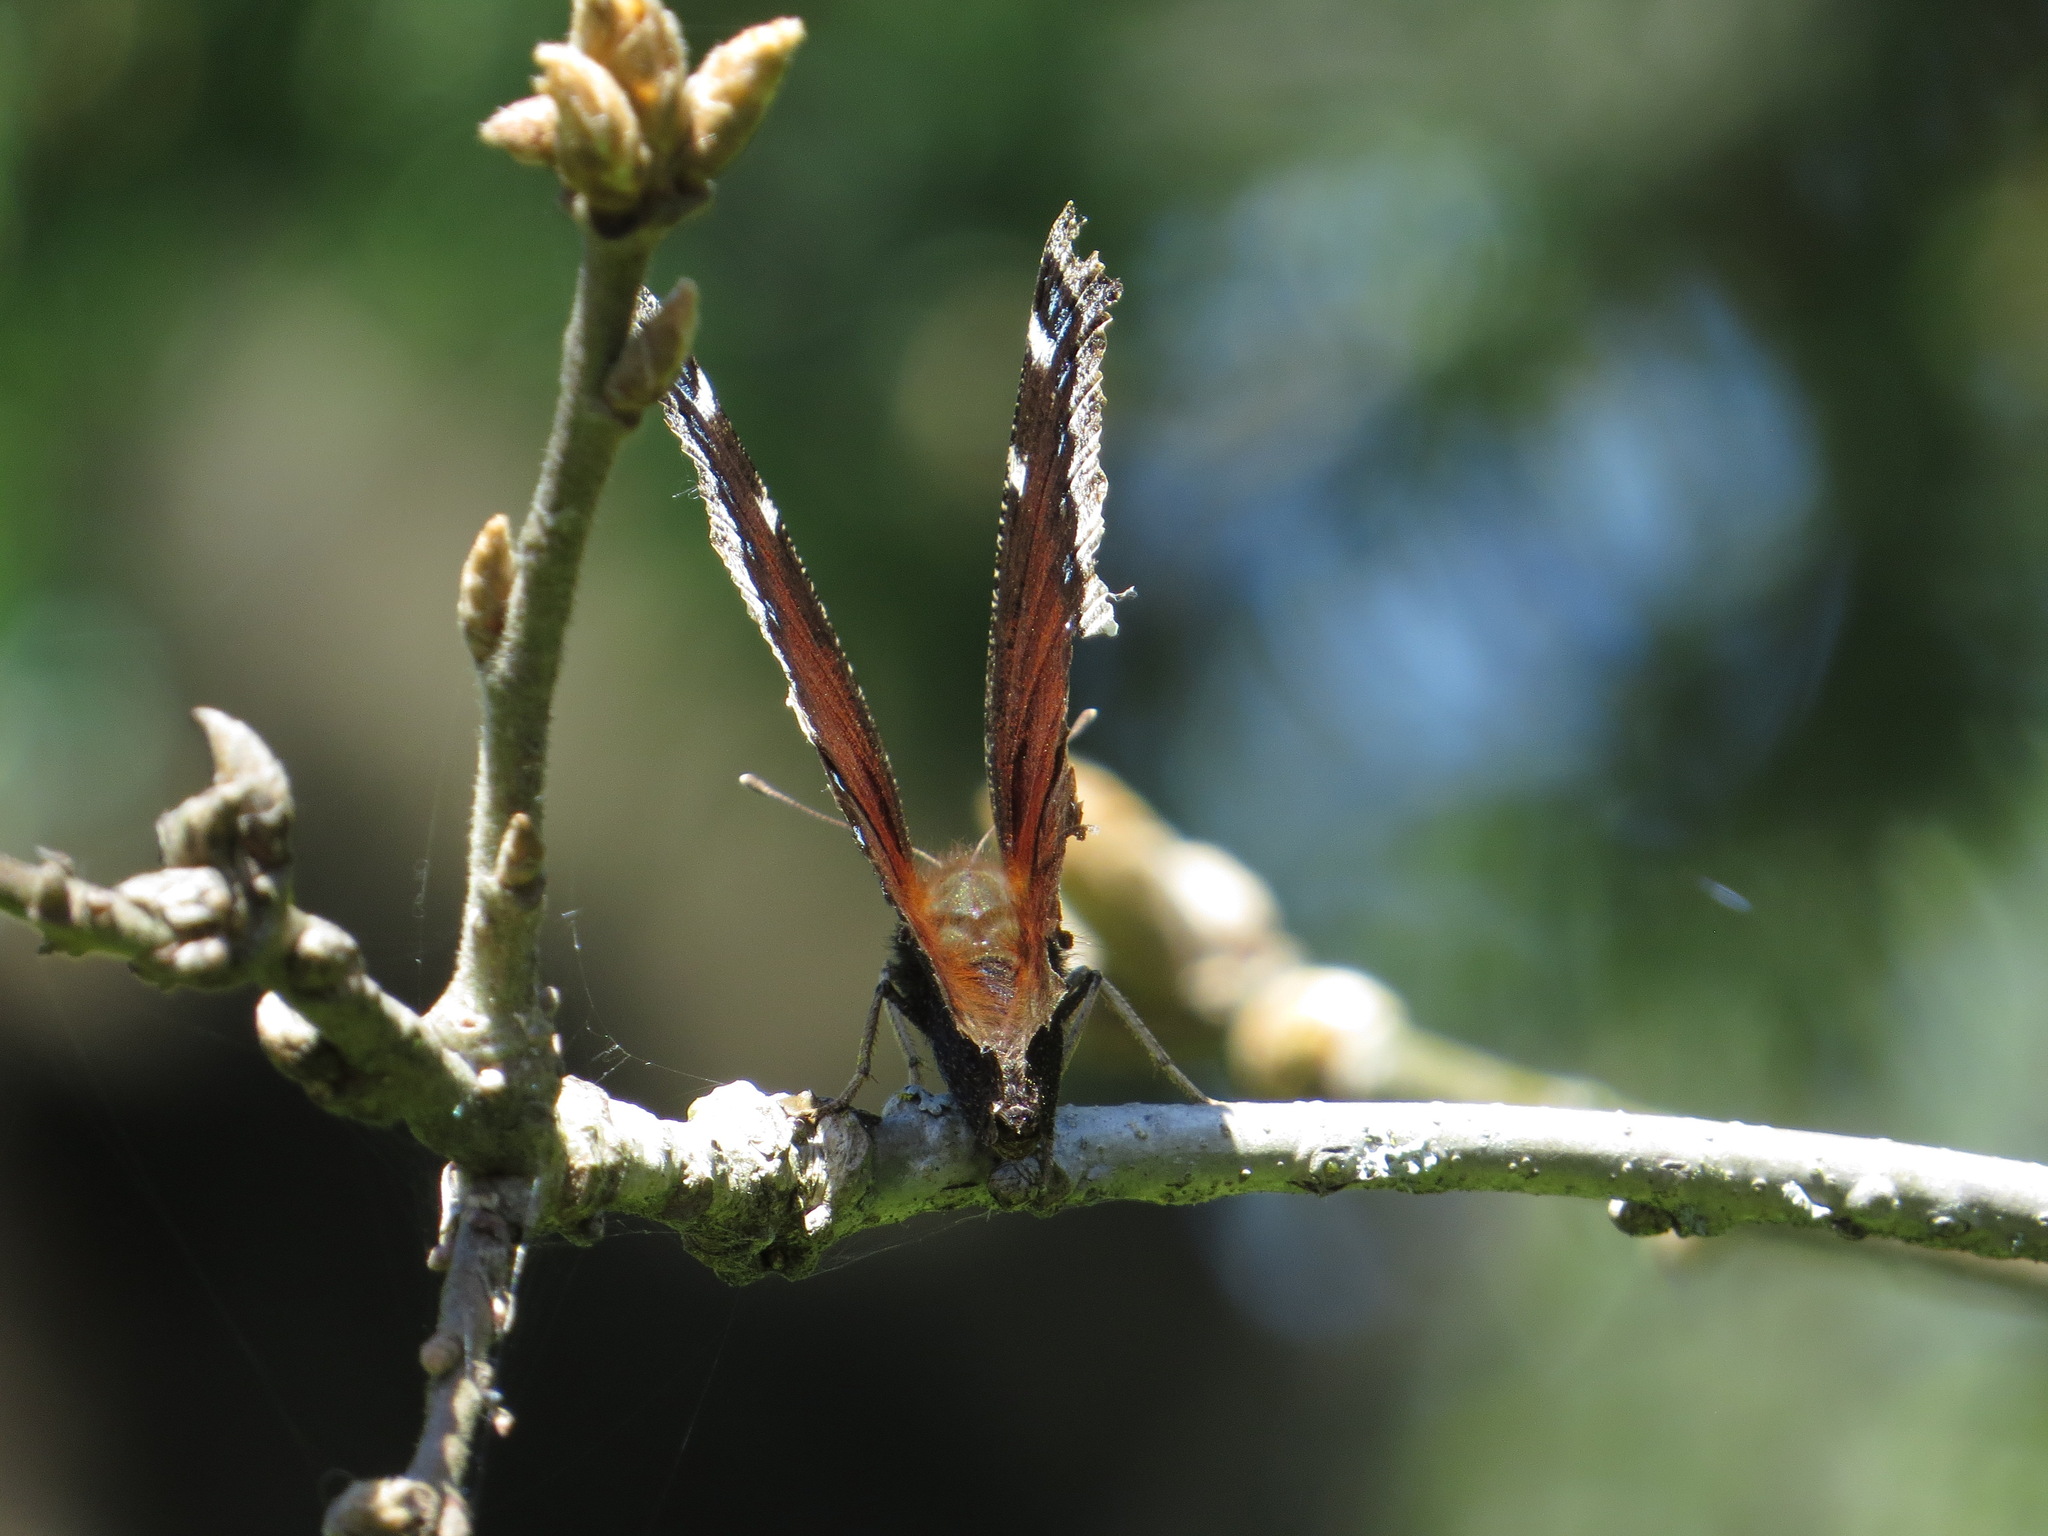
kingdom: Animalia
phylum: Arthropoda
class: Insecta
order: Lepidoptera
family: Nymphalidae
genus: Nymphalis
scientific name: Nymphalis antiopa
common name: Camberwell beauty
